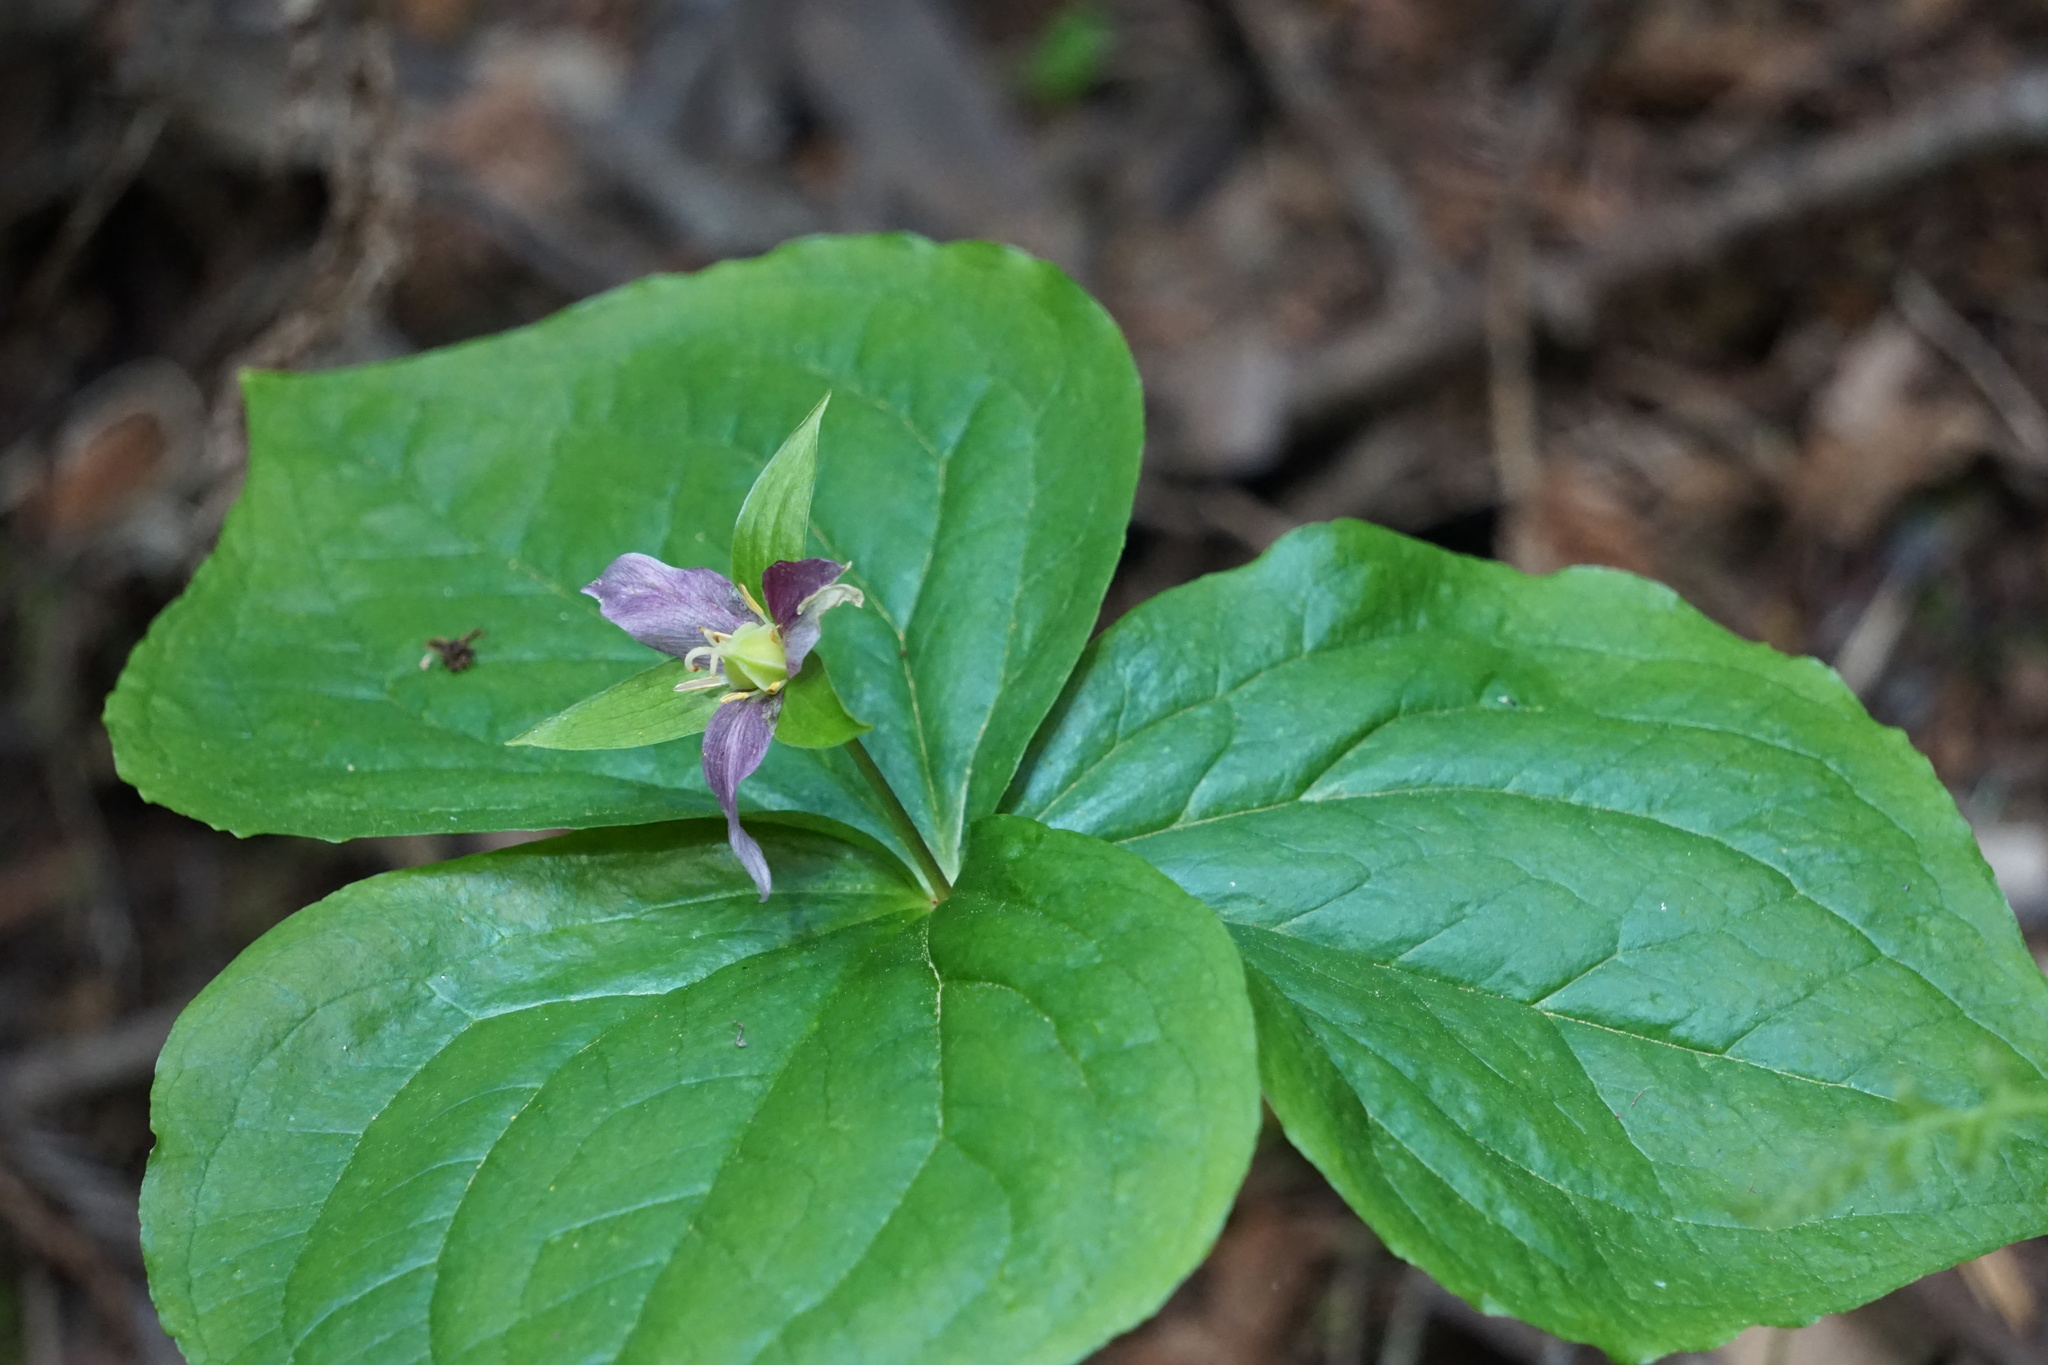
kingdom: Plantae
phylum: Tracheophyta
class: Liliopsida
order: Liliales
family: Melanthiaceae
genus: Trillium
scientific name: Trillium ovatum
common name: Pacific trillium
